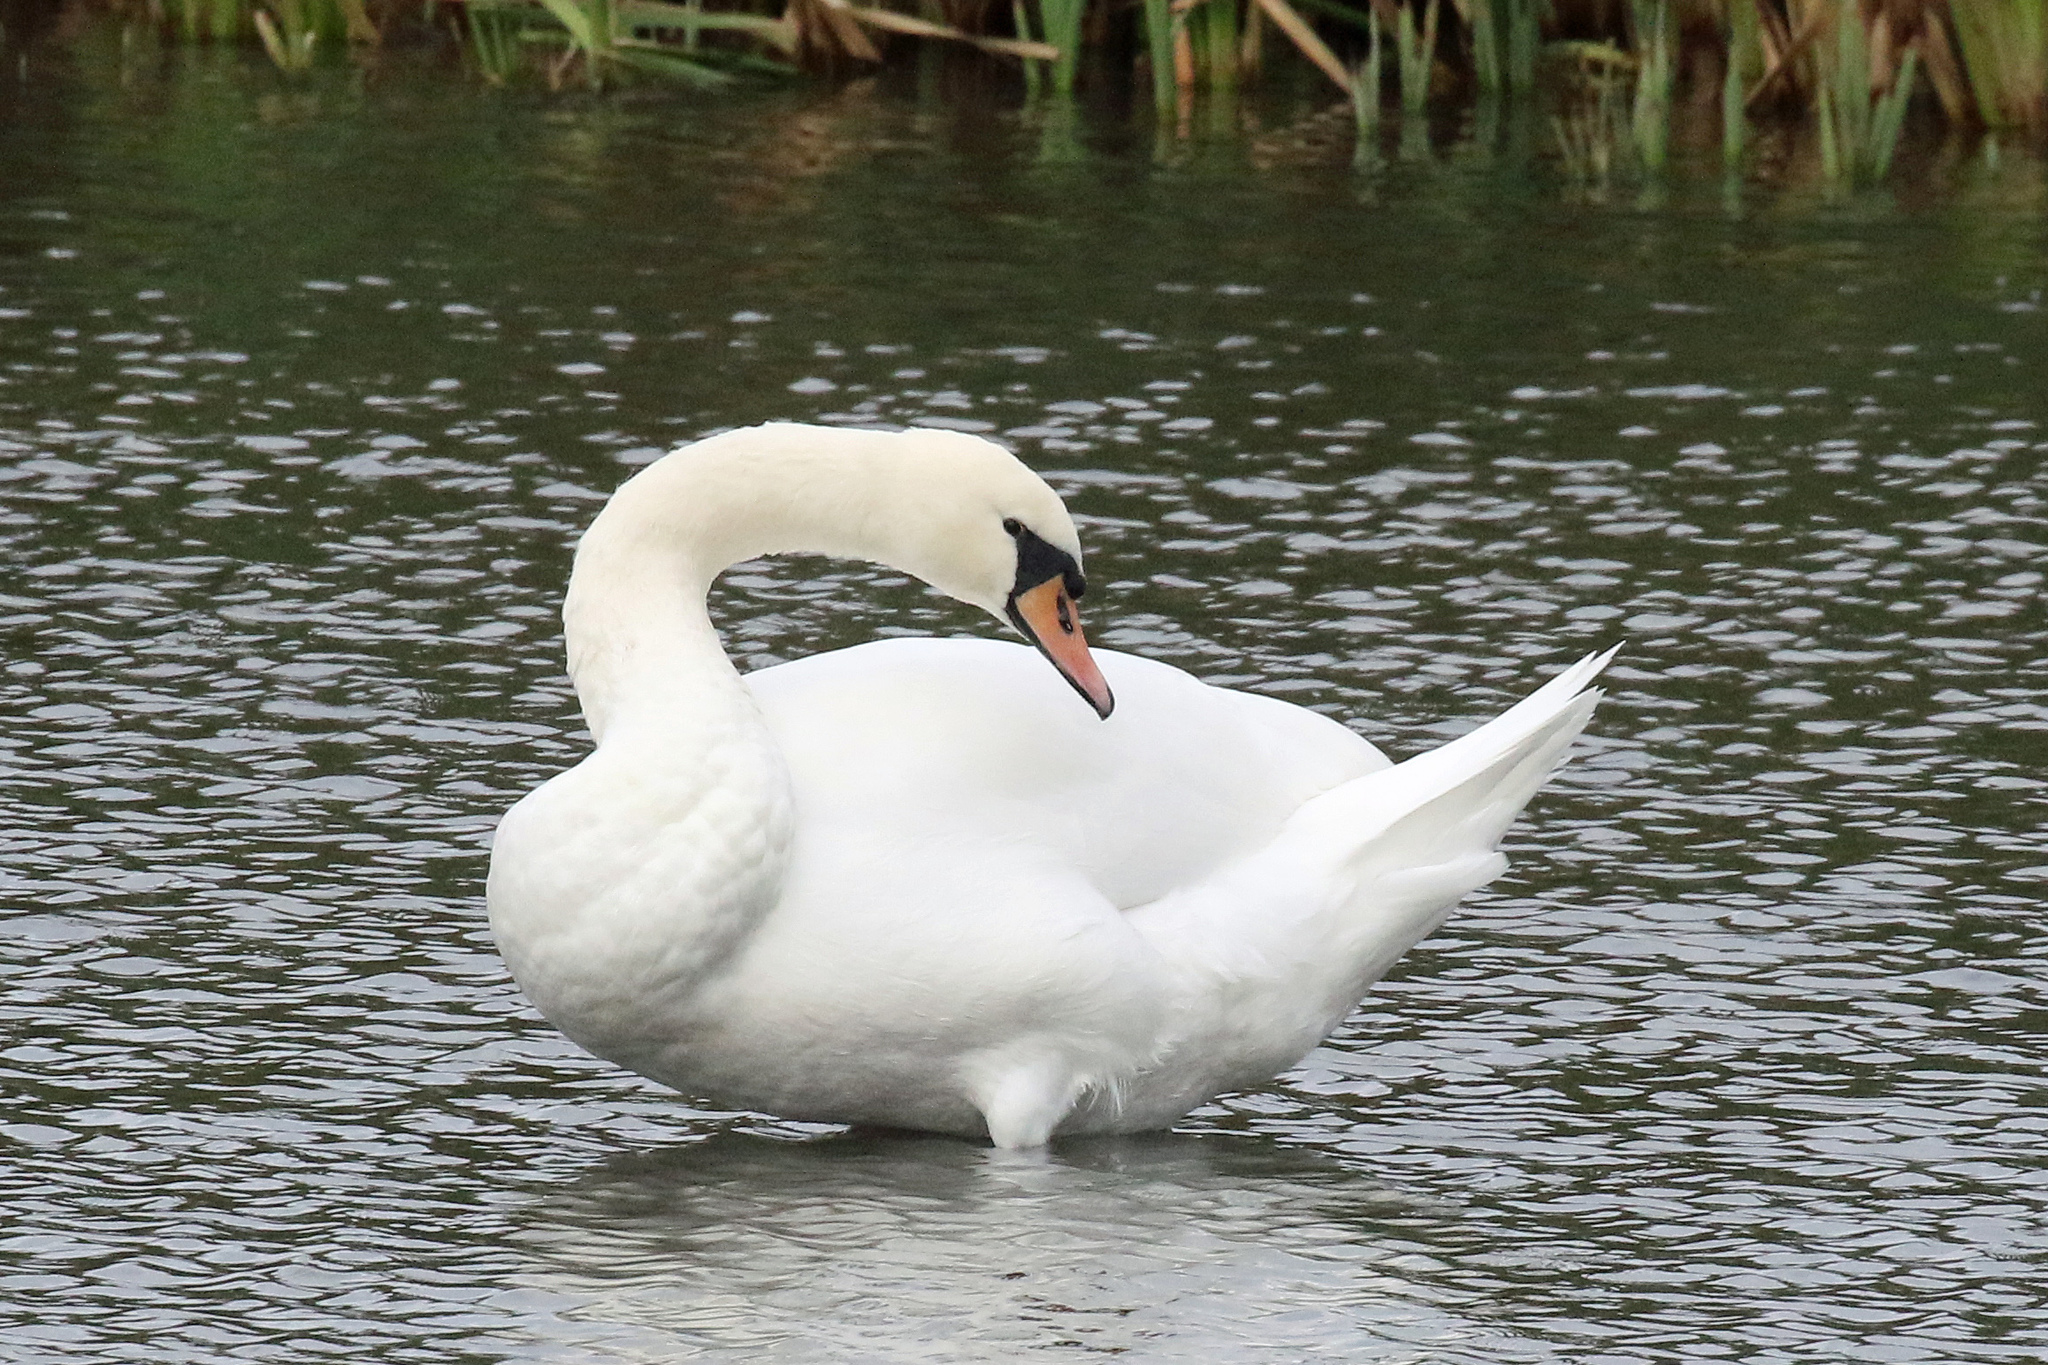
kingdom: Animalia
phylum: Chordata
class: Aves
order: Anseriformes
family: Anatidae
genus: Cygnus
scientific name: Cygnus olor
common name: Mute swan
